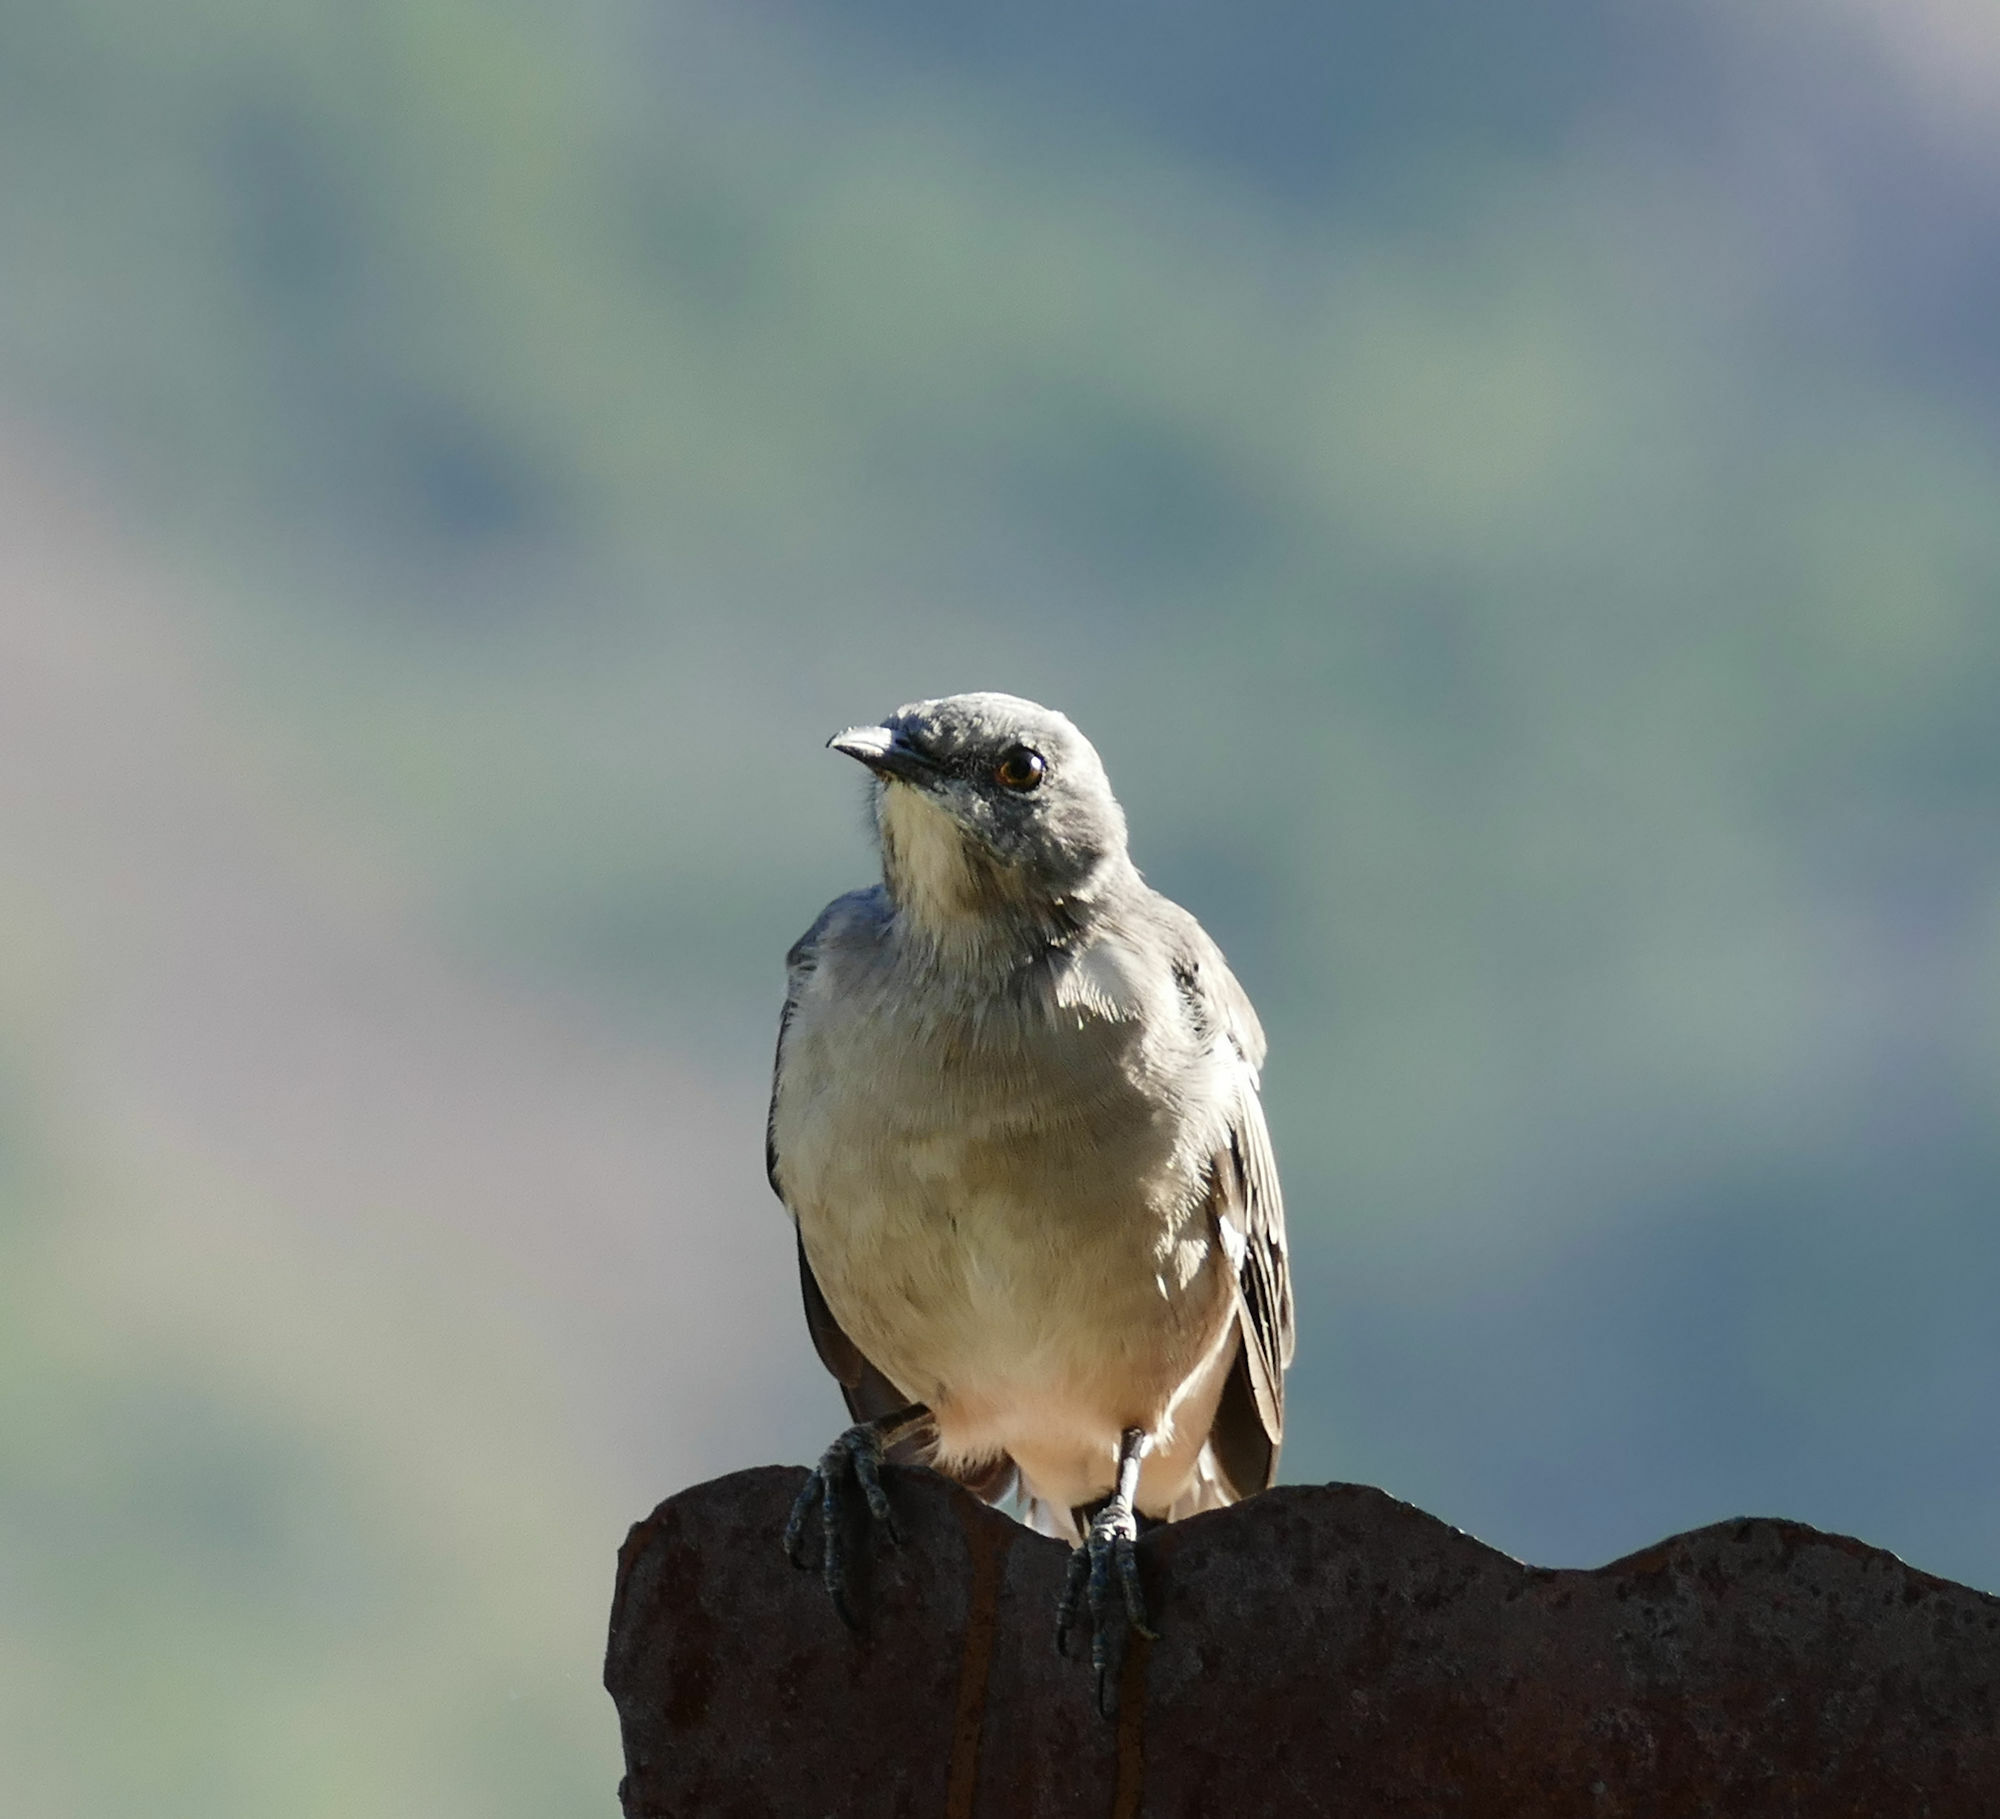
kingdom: Animalia
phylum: Chordata
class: Aves
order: Passeriformes
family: Mimidae
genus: Mimus
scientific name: Mimus polyglottos
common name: Northern mockingbird
